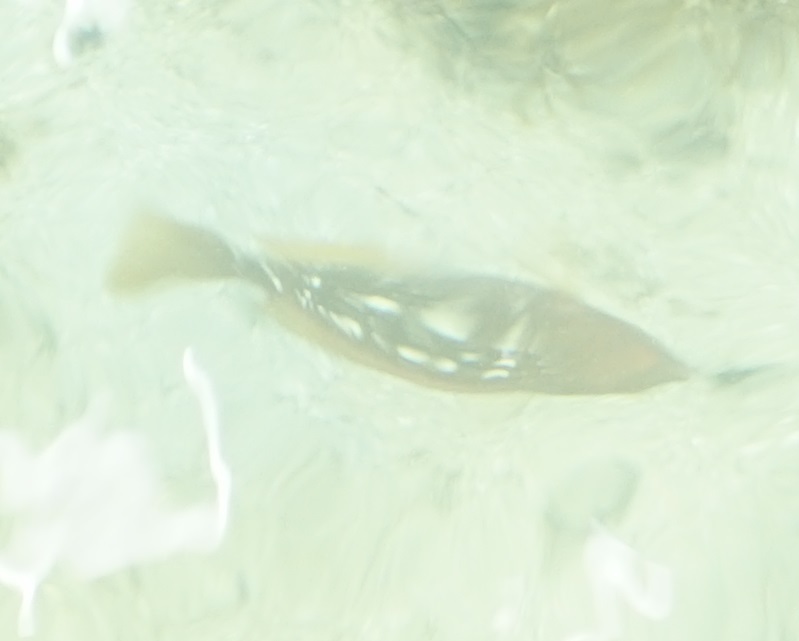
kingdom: Animalia
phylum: Chordata
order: Perciformes
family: Labridae
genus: Notolabrus
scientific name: Notolabrus gymnogenis
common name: Crimson banded wrasse
